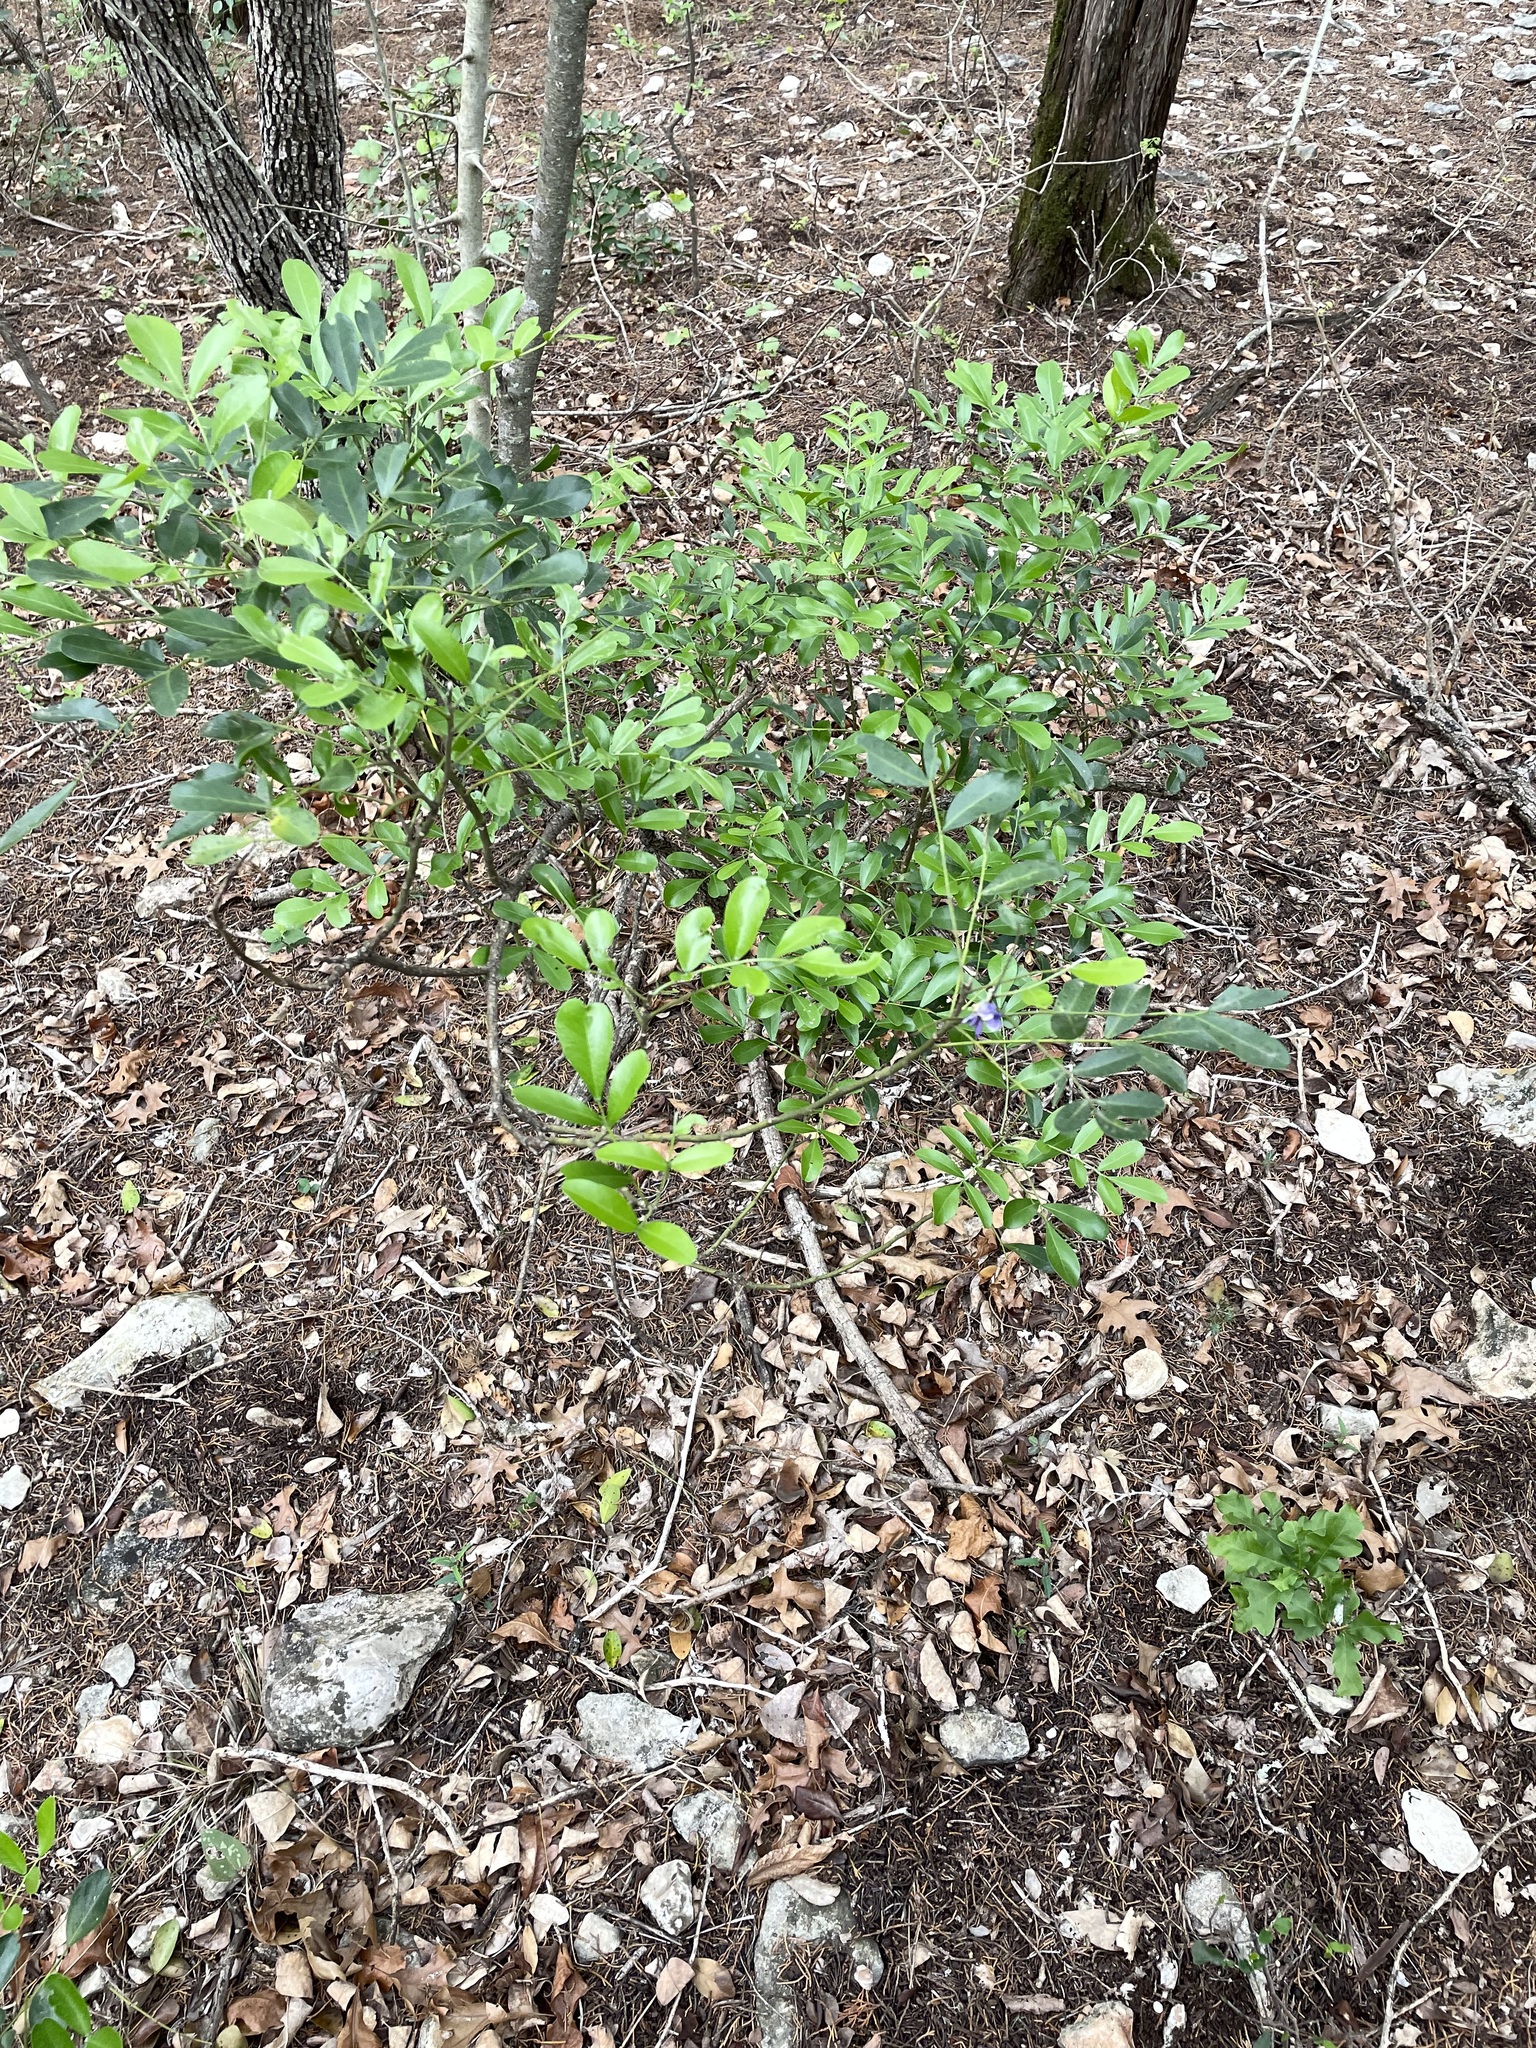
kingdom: Plantae
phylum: Tracheophyta
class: Magnoliopsida
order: Fabales
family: Fabaceae
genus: Dermatophyllum
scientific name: Dermatophyllum secundiflorum
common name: Texas-mountain-laurel
